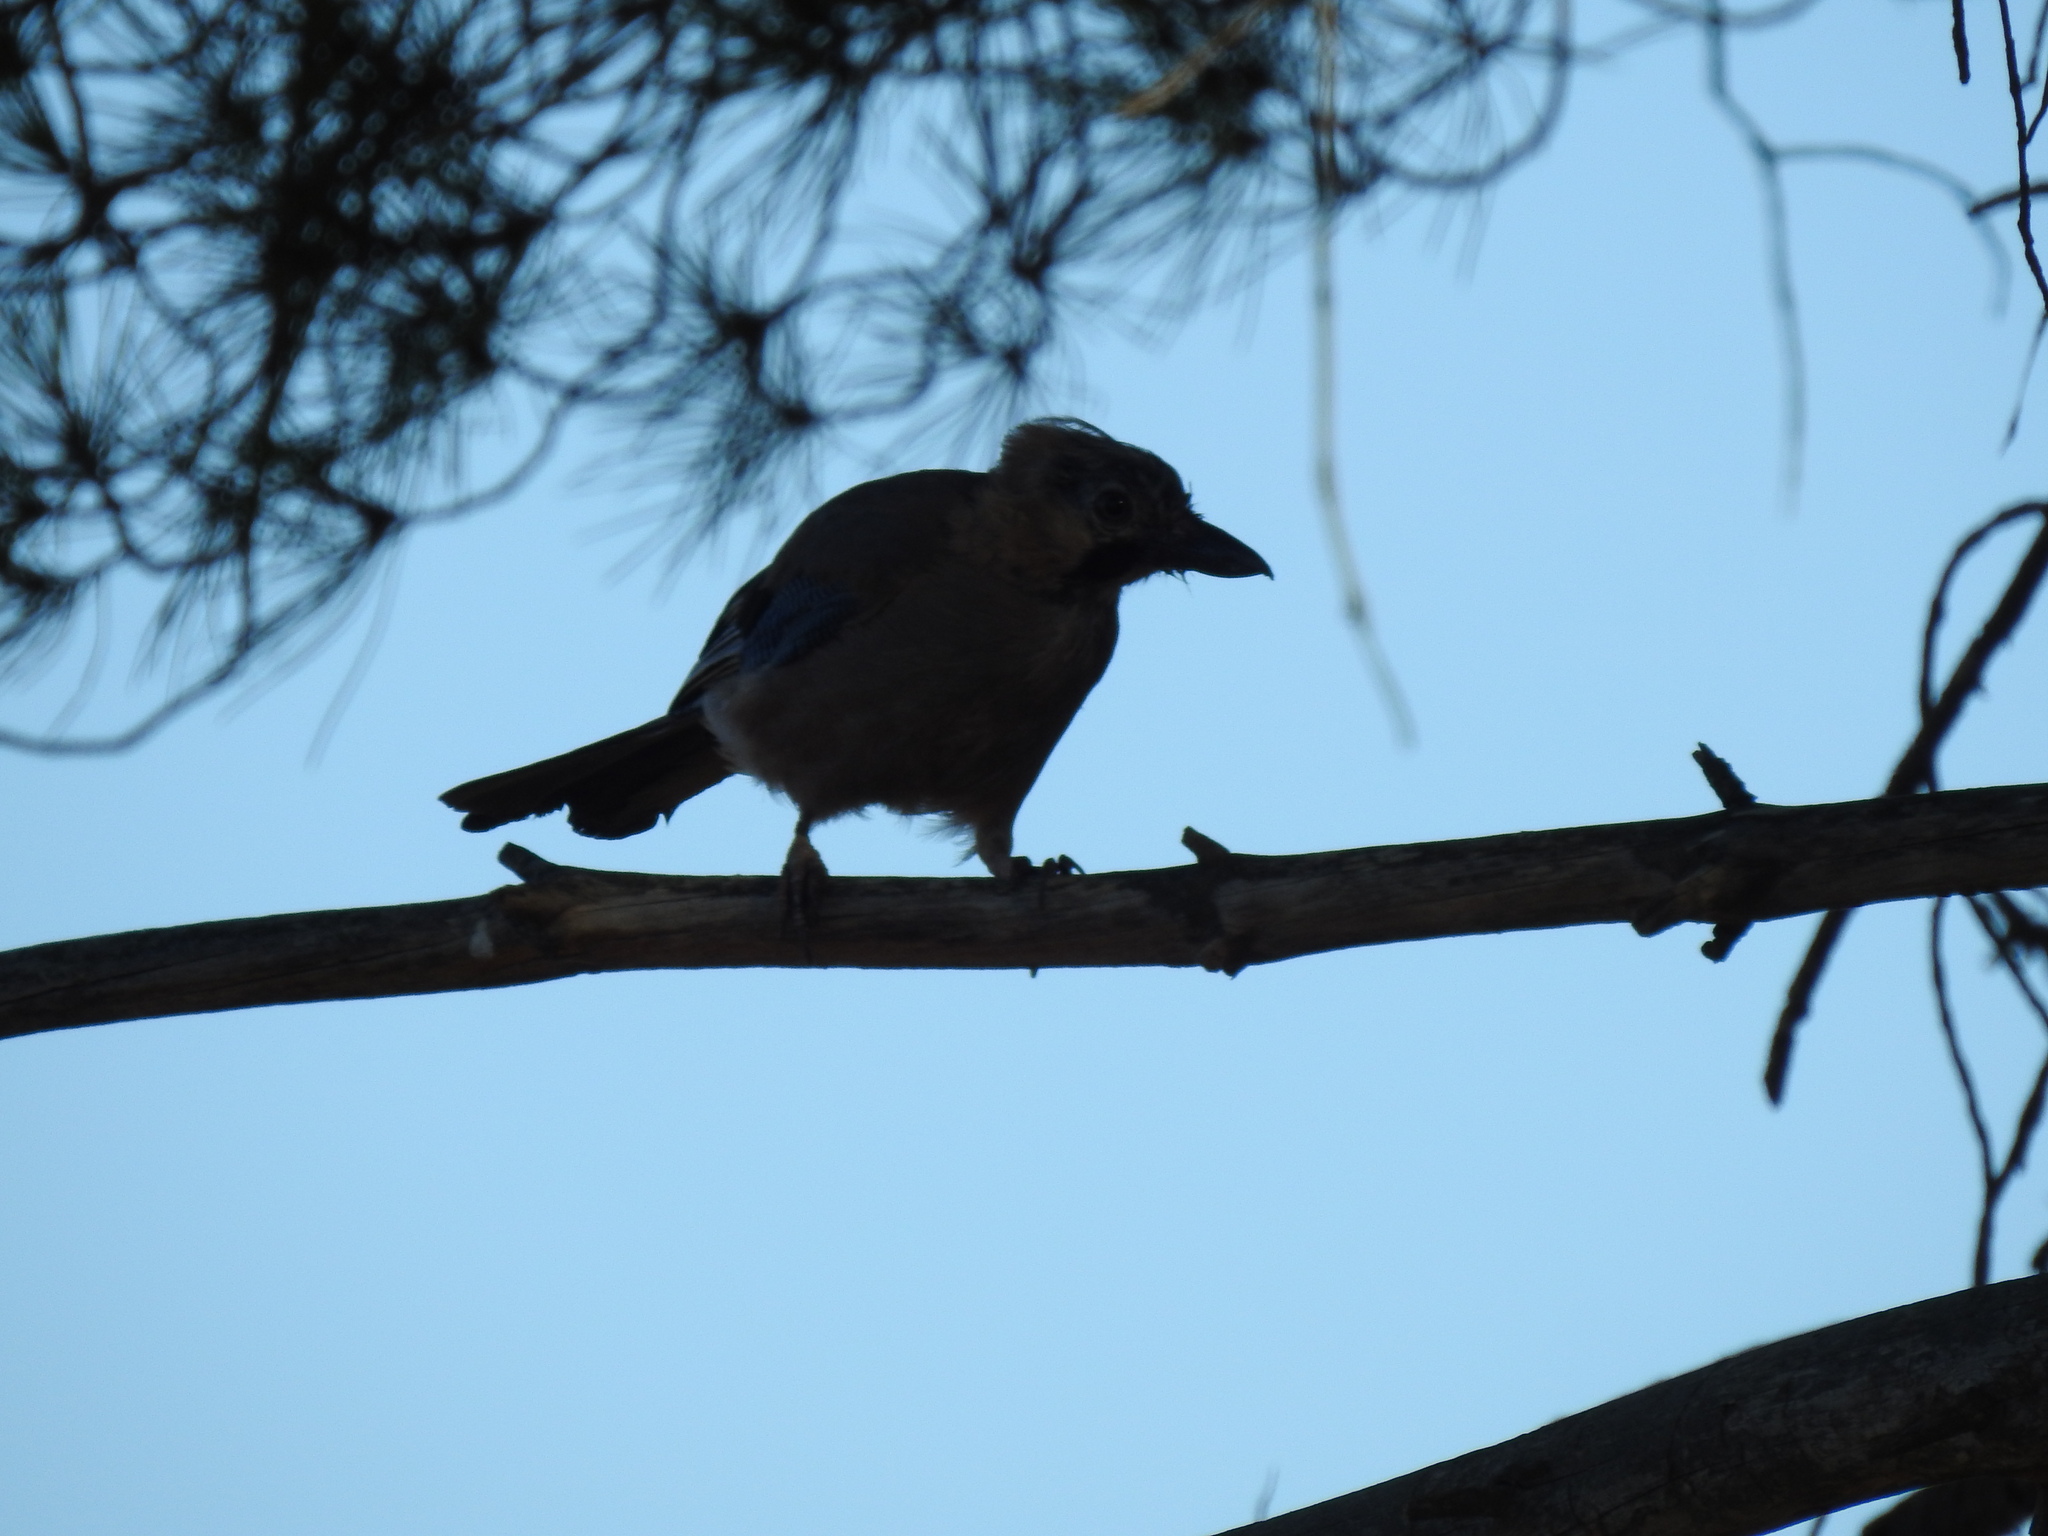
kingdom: Animalia
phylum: Chordata
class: Aves
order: Passeriformes
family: Corvidae
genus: Garrulus
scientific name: Garrulus glandarius
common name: Eurasian jay
